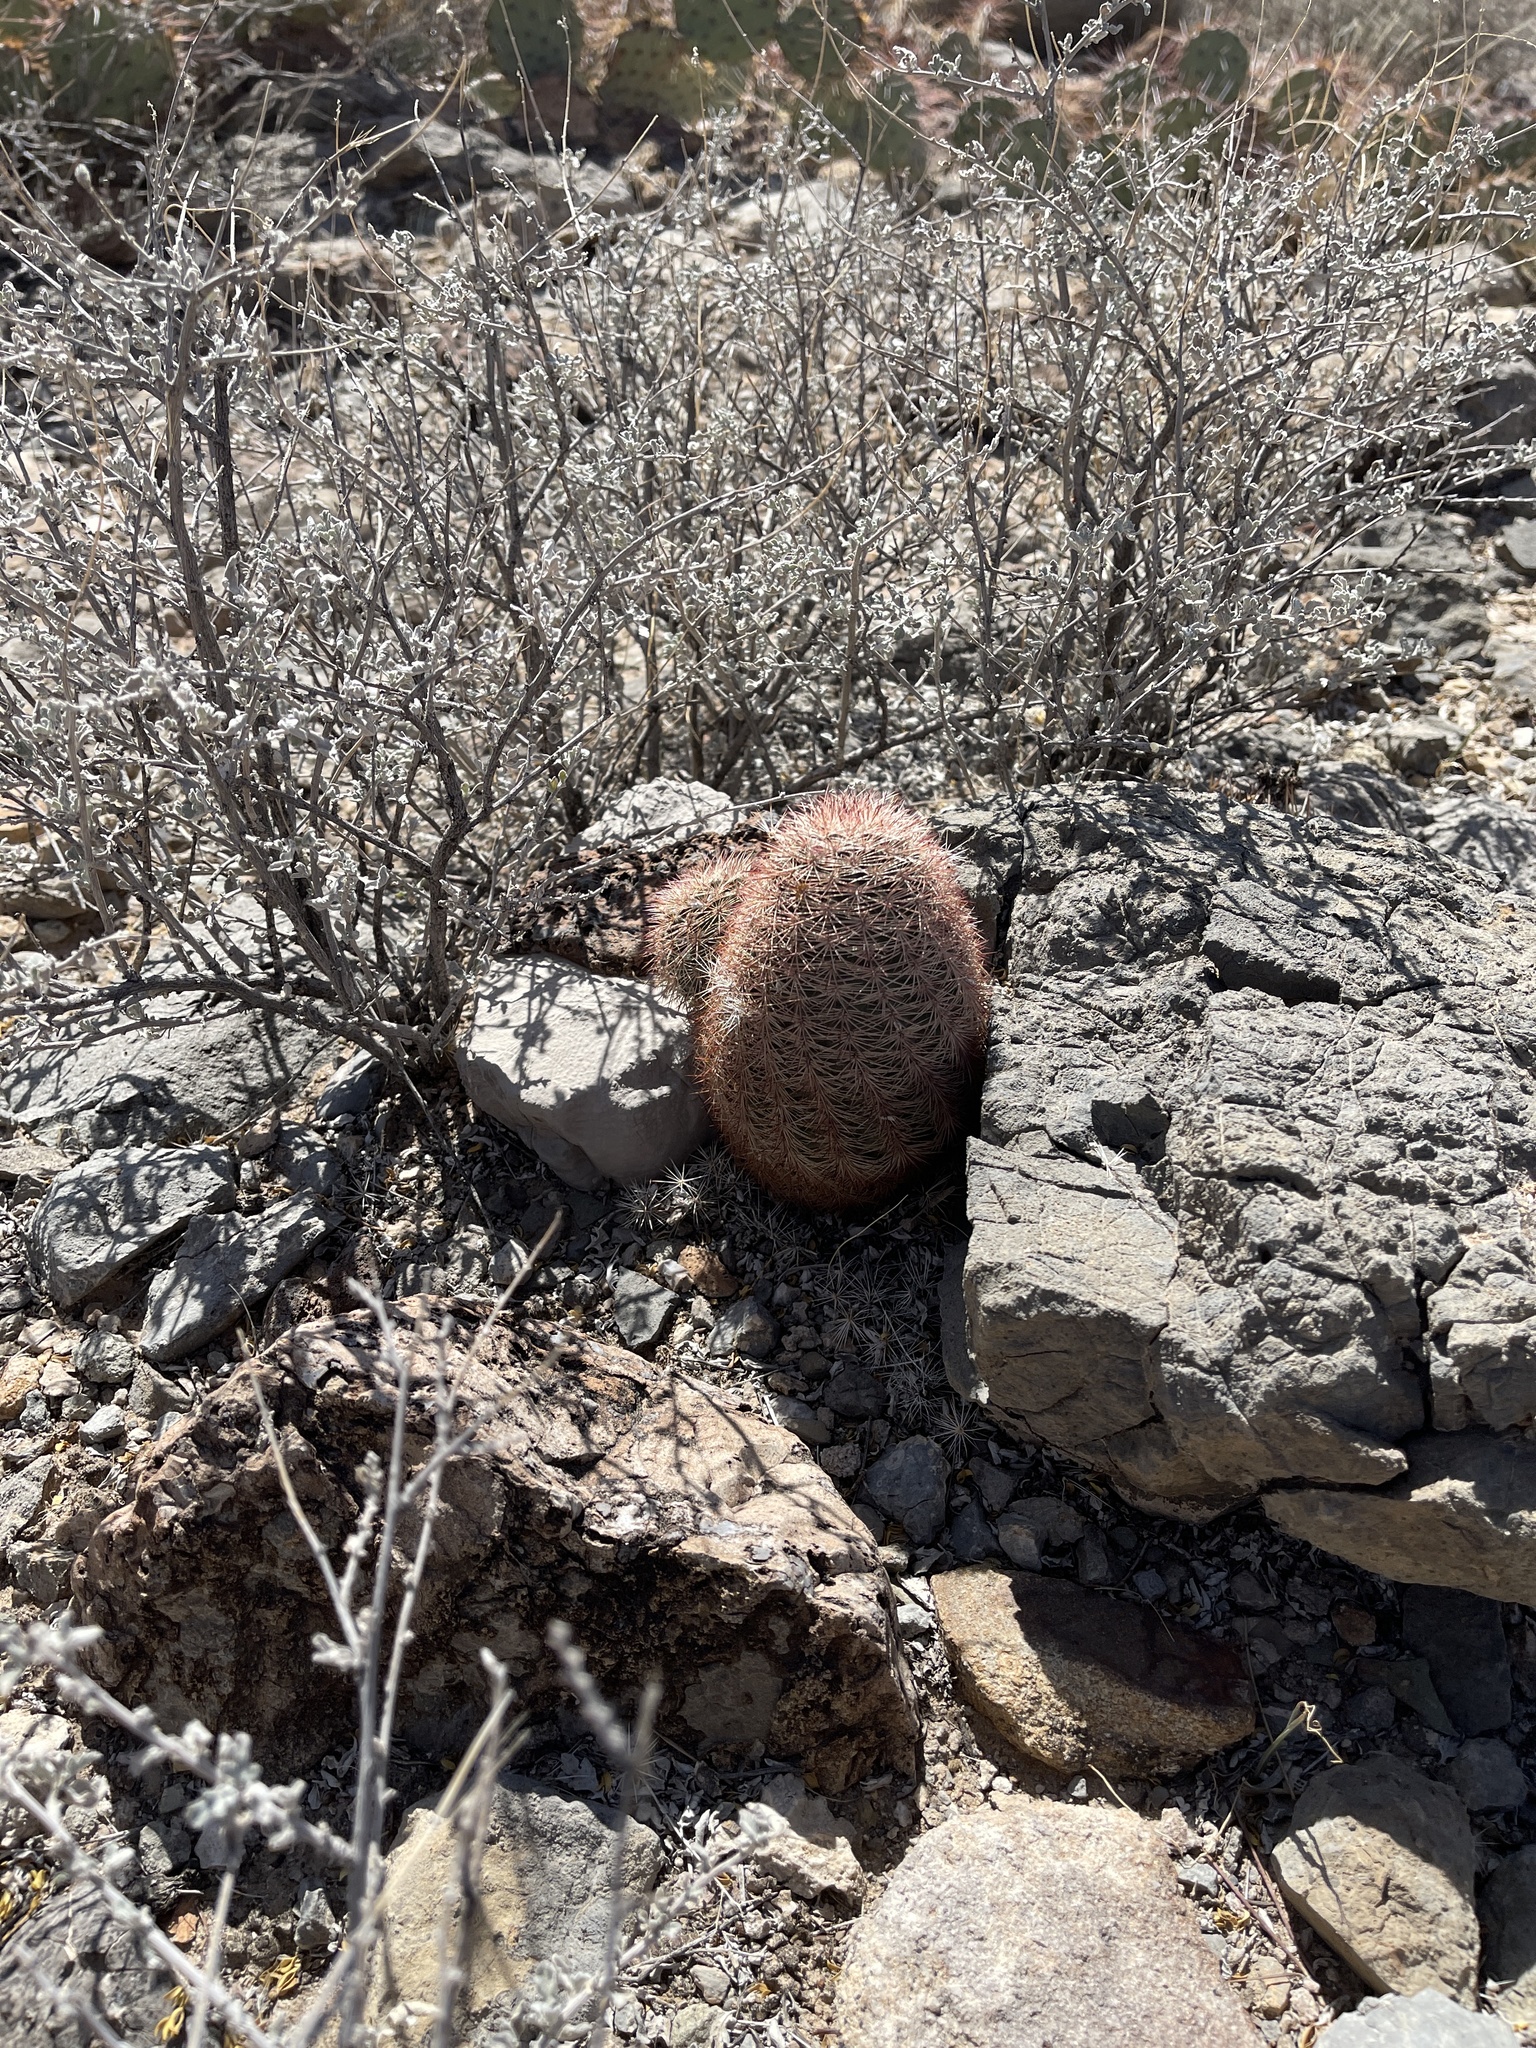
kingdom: Plantae
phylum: Tracheophyta
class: Magnoliopsida
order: Caryophyllales
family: Cactaceae
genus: Echinocereus
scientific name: Echinocereus dasyacanthus
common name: Spiny hedgehog cactus
